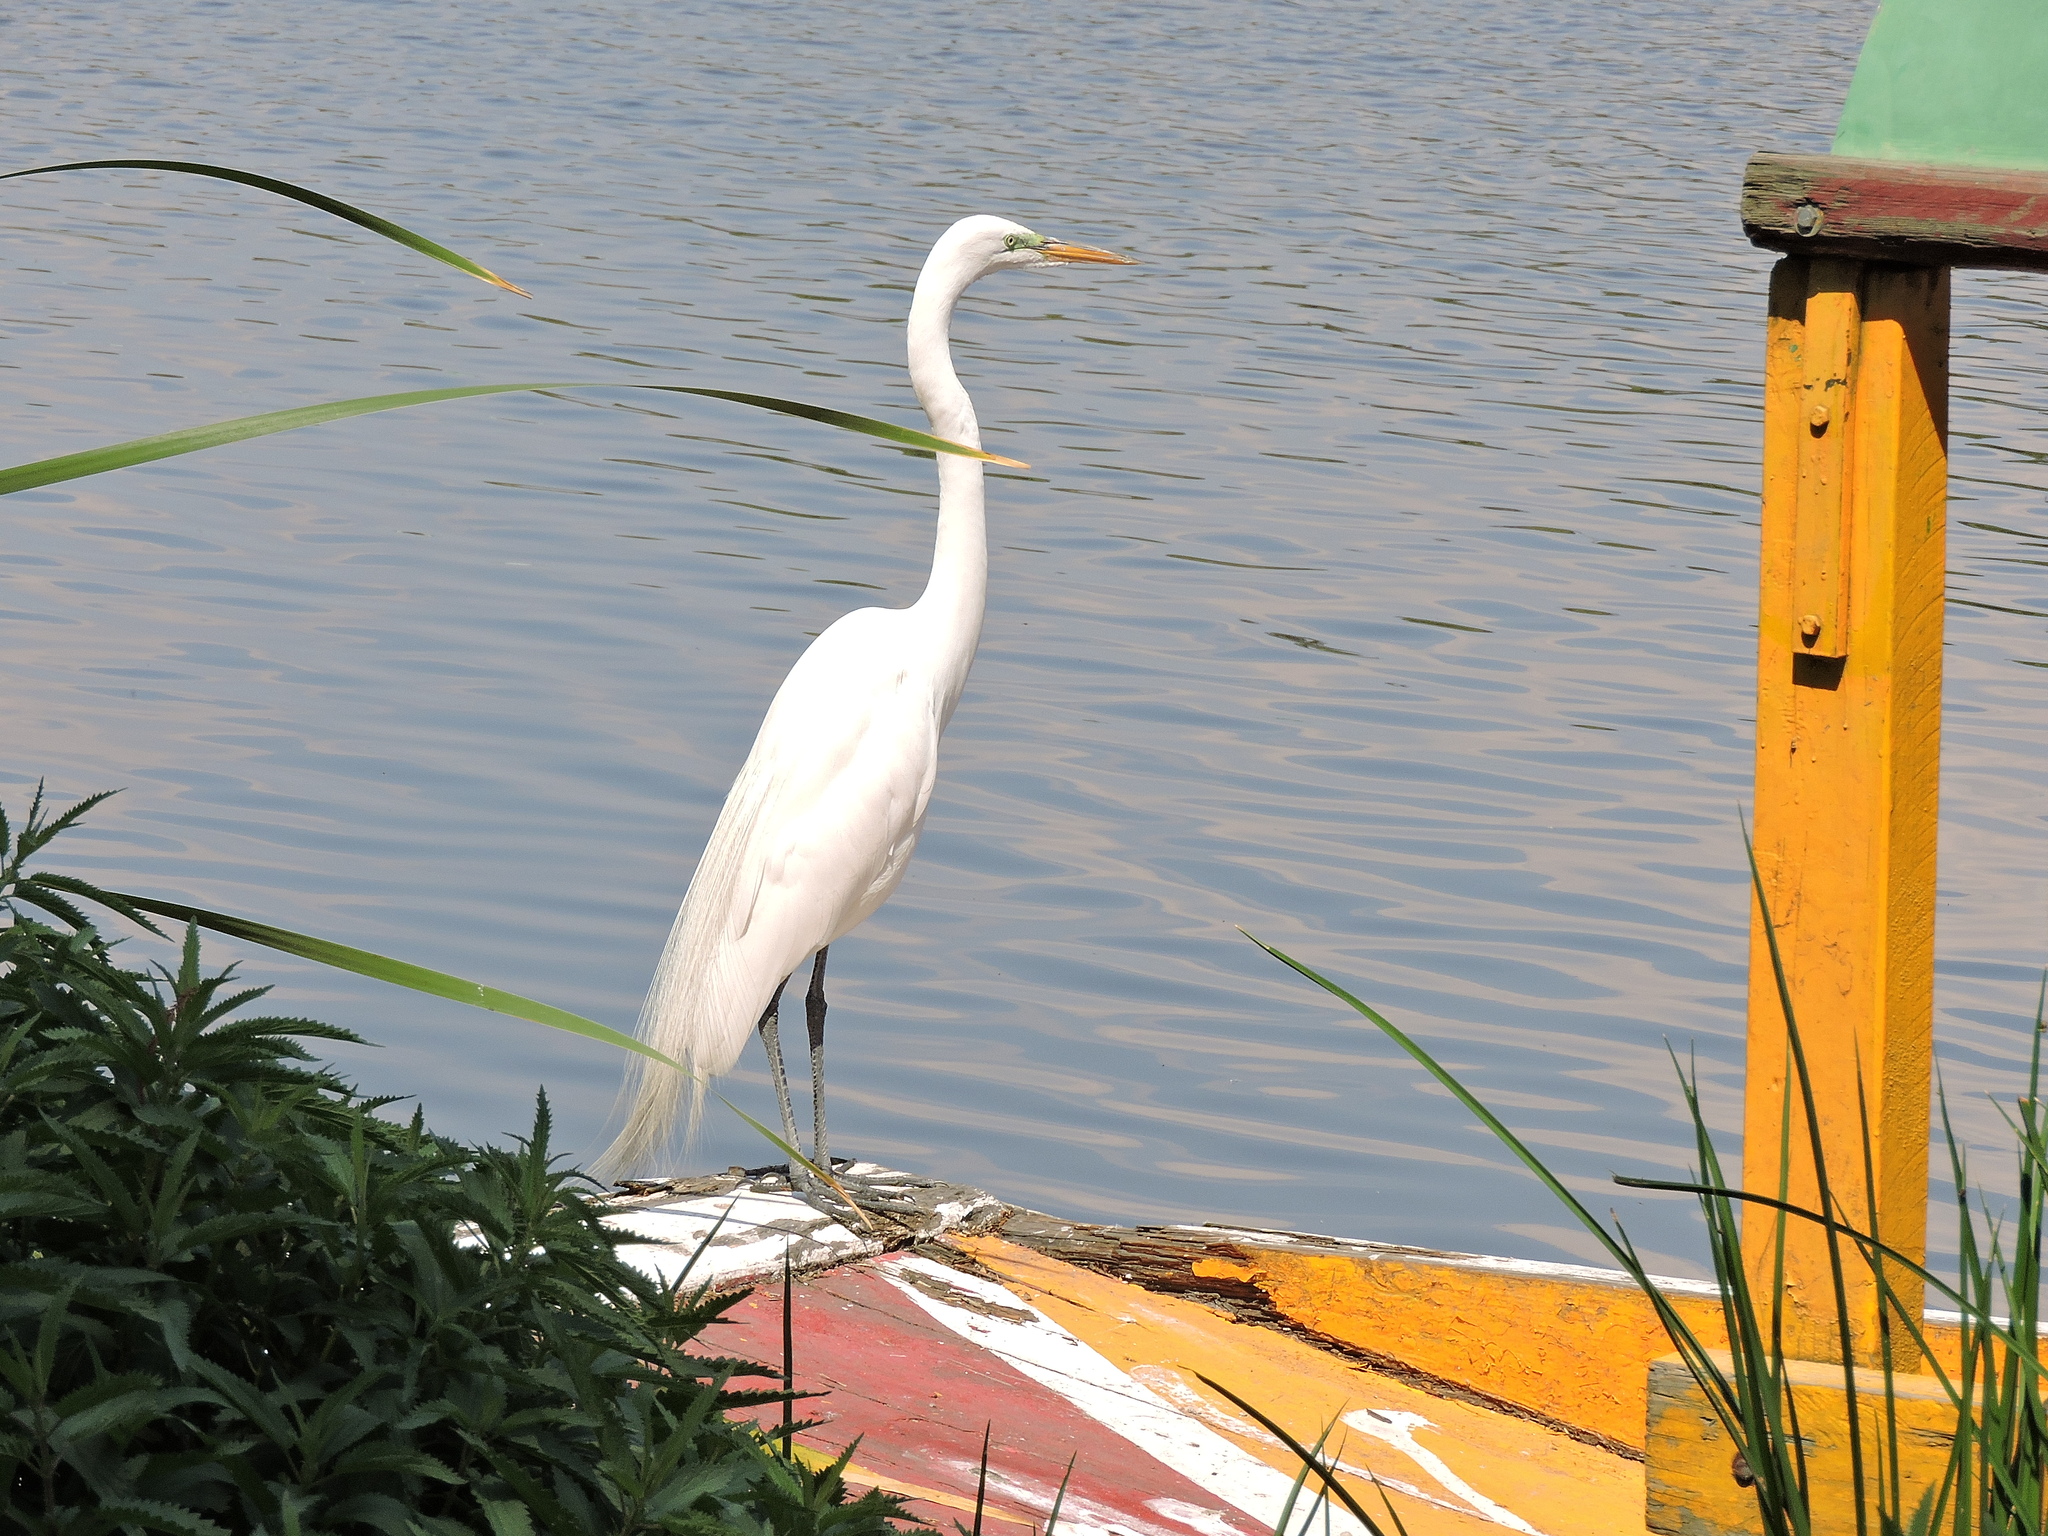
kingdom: Animalia
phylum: Chordata
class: Aves
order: Pelecaniformes
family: Ardeidae
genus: Ardea
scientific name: Ardea alba
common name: Great egret
